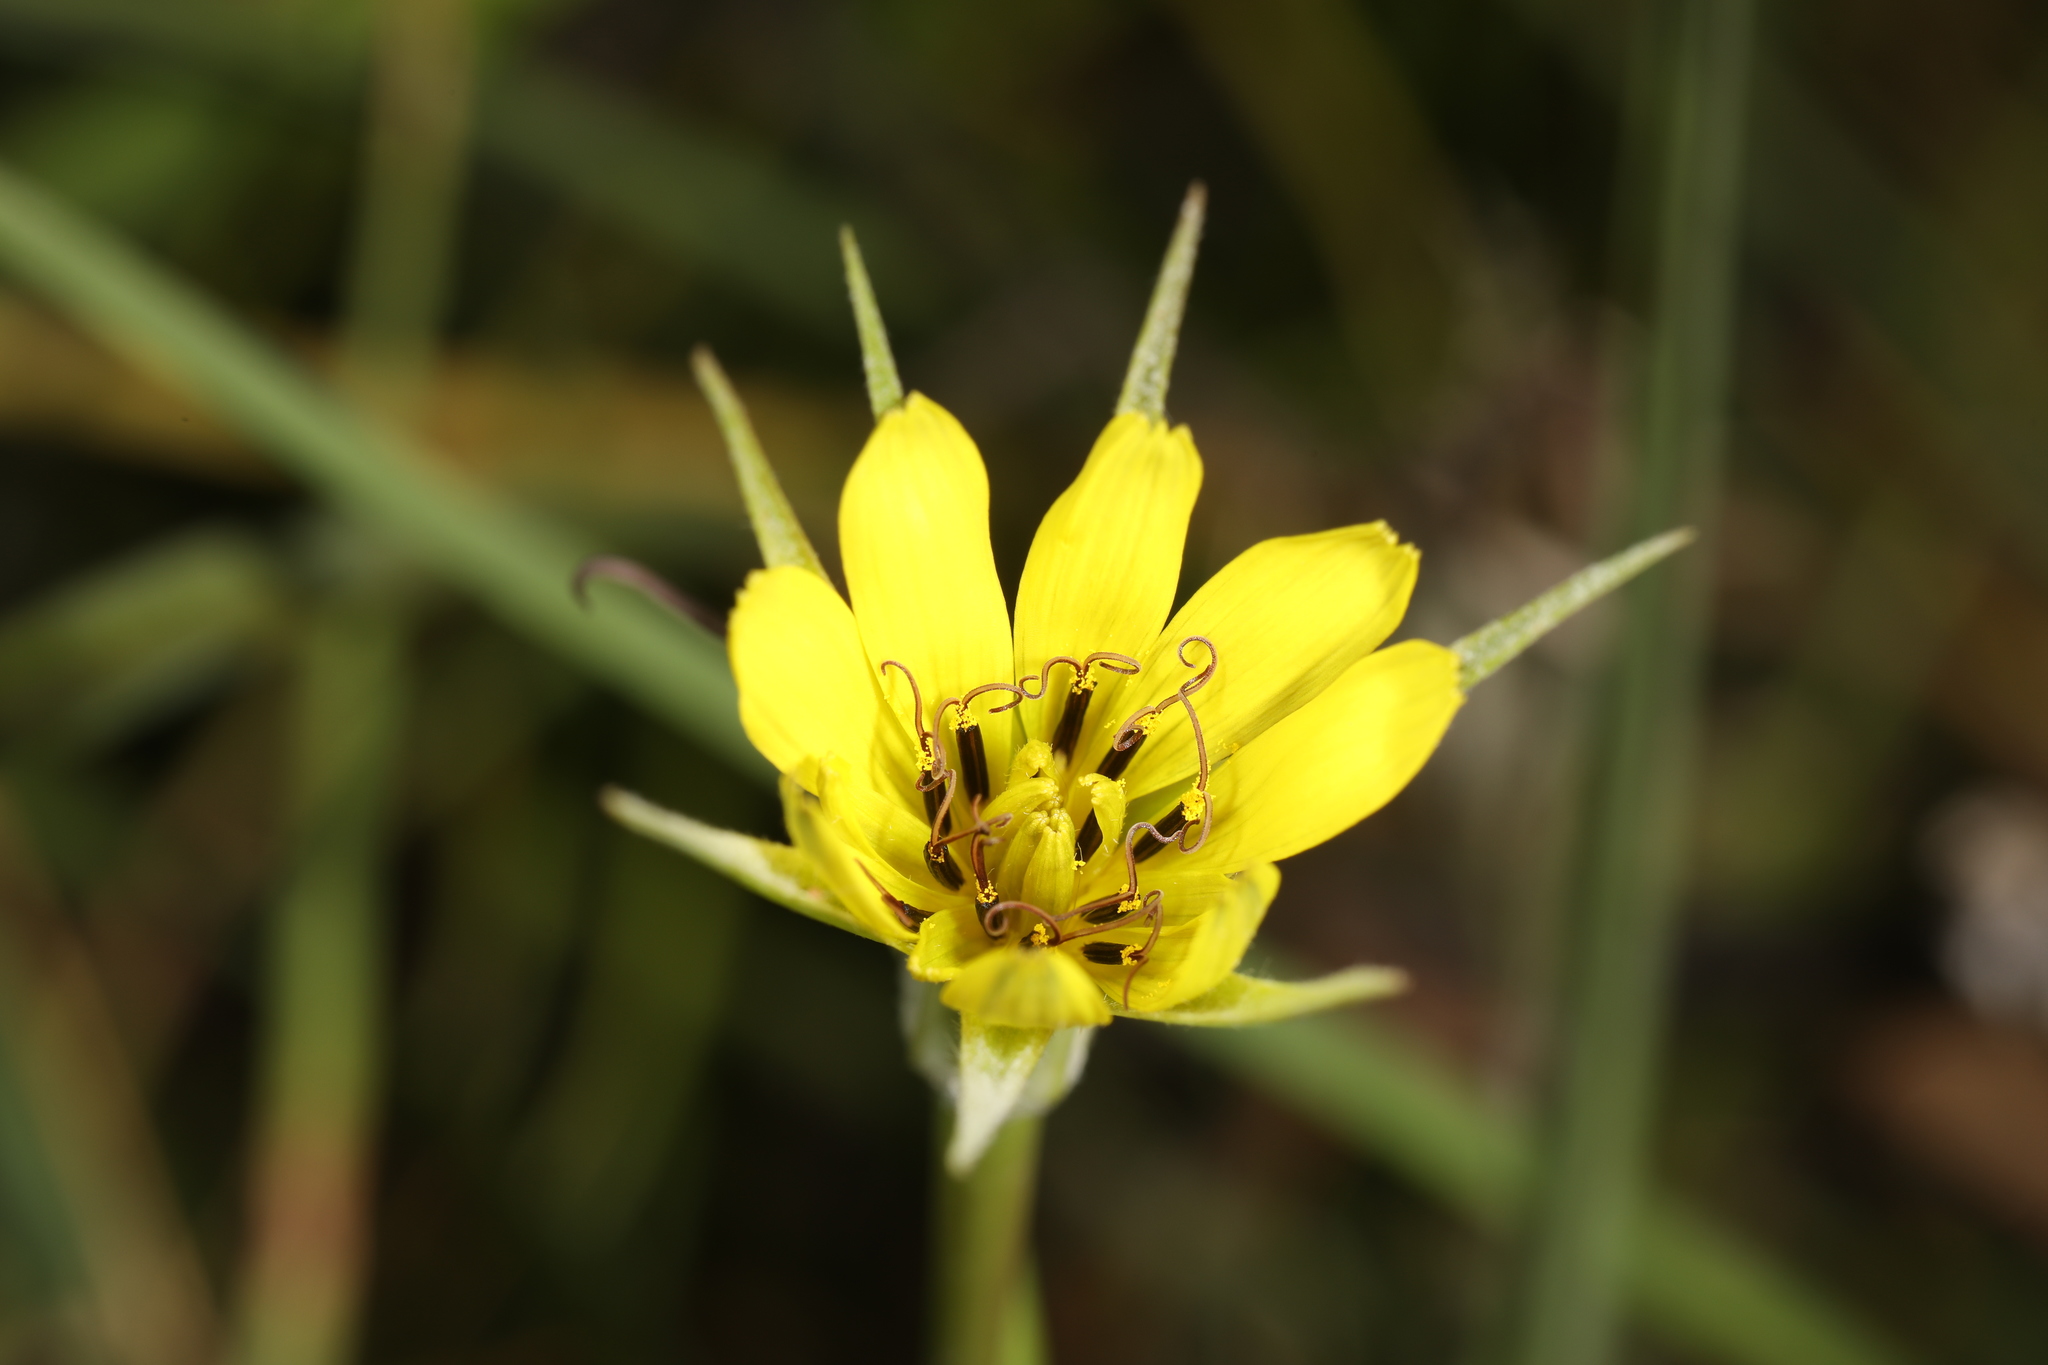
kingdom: Plantae
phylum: Tracheophyta
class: Magnoliopsida
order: Asterales
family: Asteraceae
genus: Tragopogon
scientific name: Tragopogon dubius
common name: Yellow salsify
